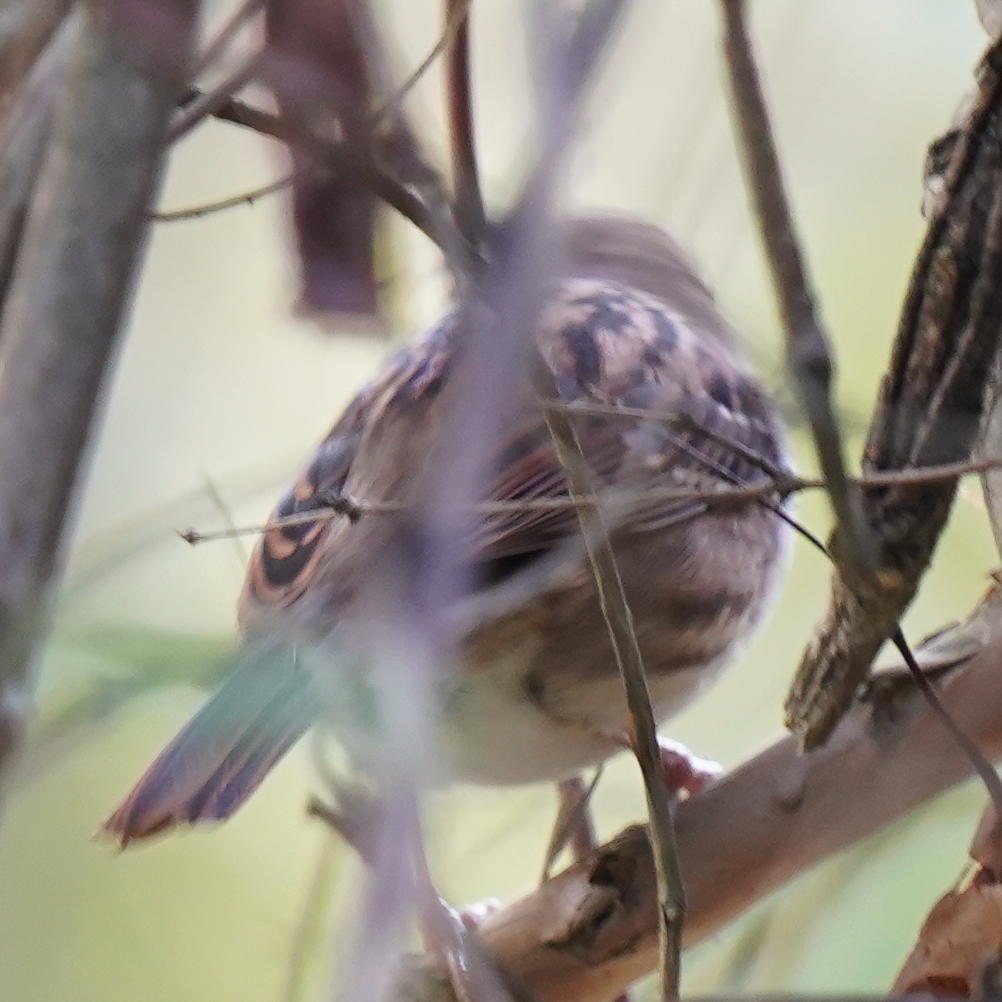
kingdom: Animalia
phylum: Chordata
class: Aves
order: Passeriformes
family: Passerellidae
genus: Zonotrichia
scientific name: Zonotrichia albicollis
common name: White-throated sparrow
